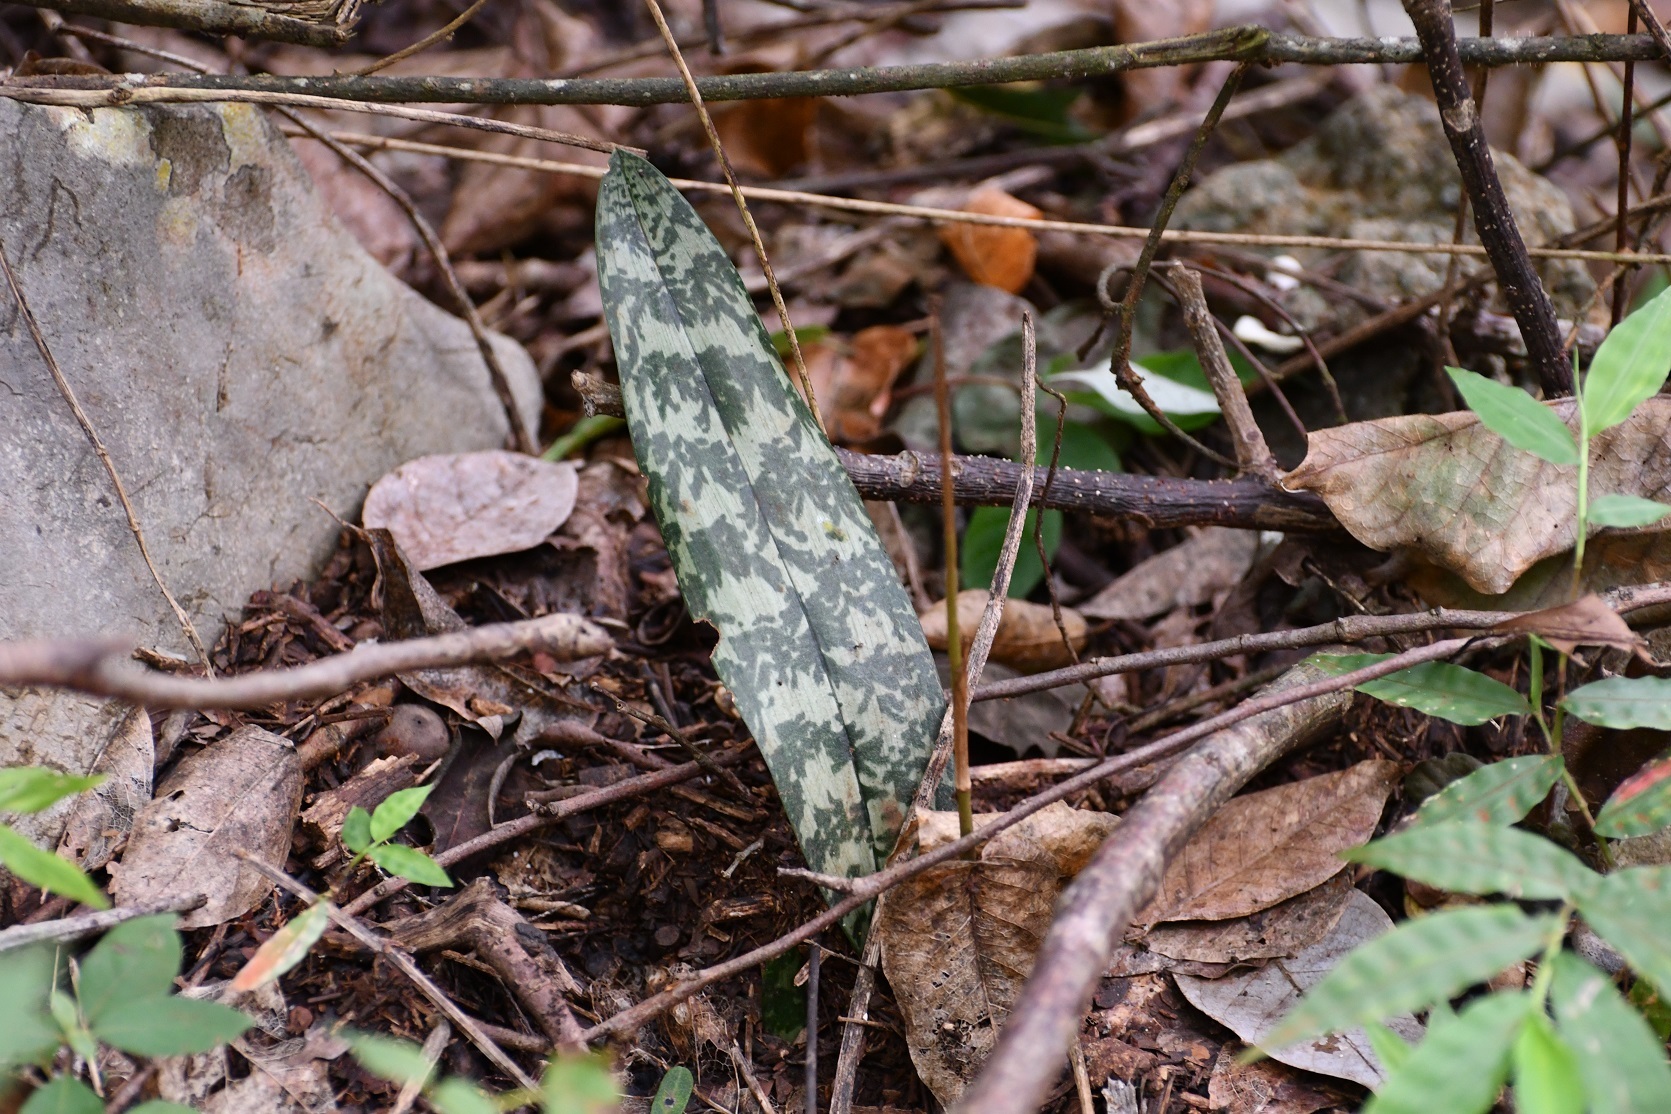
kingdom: Plantae
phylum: Tracheophyta
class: Liliopsida
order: Asparagales
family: Orchidaceae
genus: Eulophia
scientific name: Eulophia maculata
